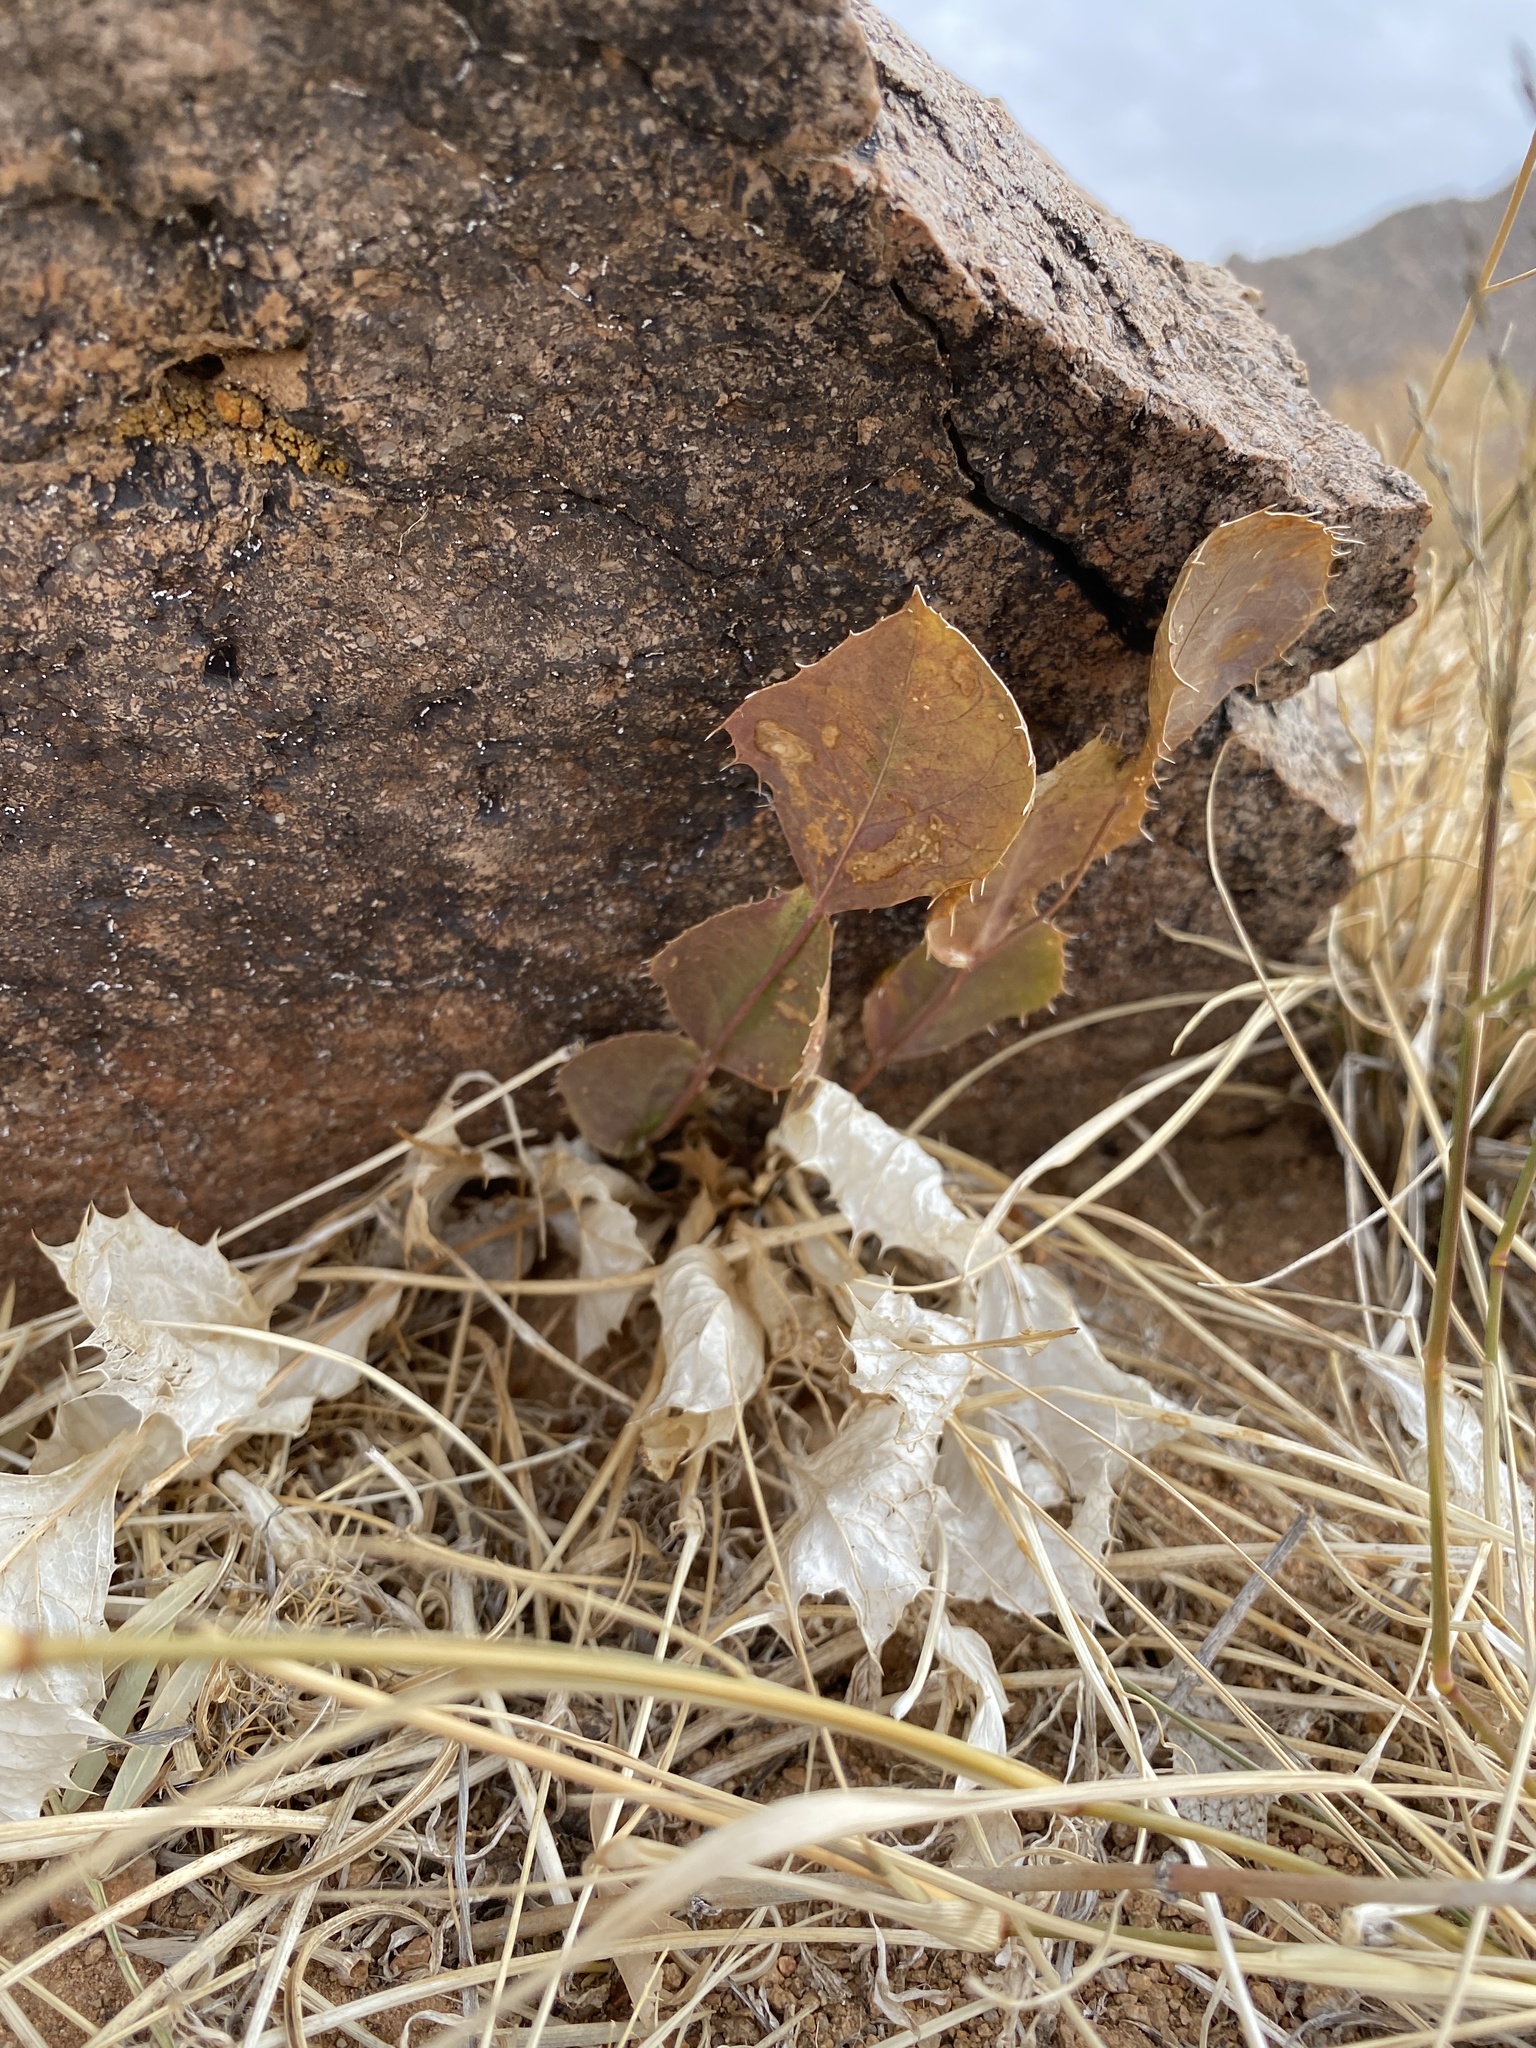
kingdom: Plantae
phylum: Tracheophyta
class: Magnoliopsida
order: Asterales
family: Asteraceae
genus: Acourtia
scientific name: Acourtia nana
